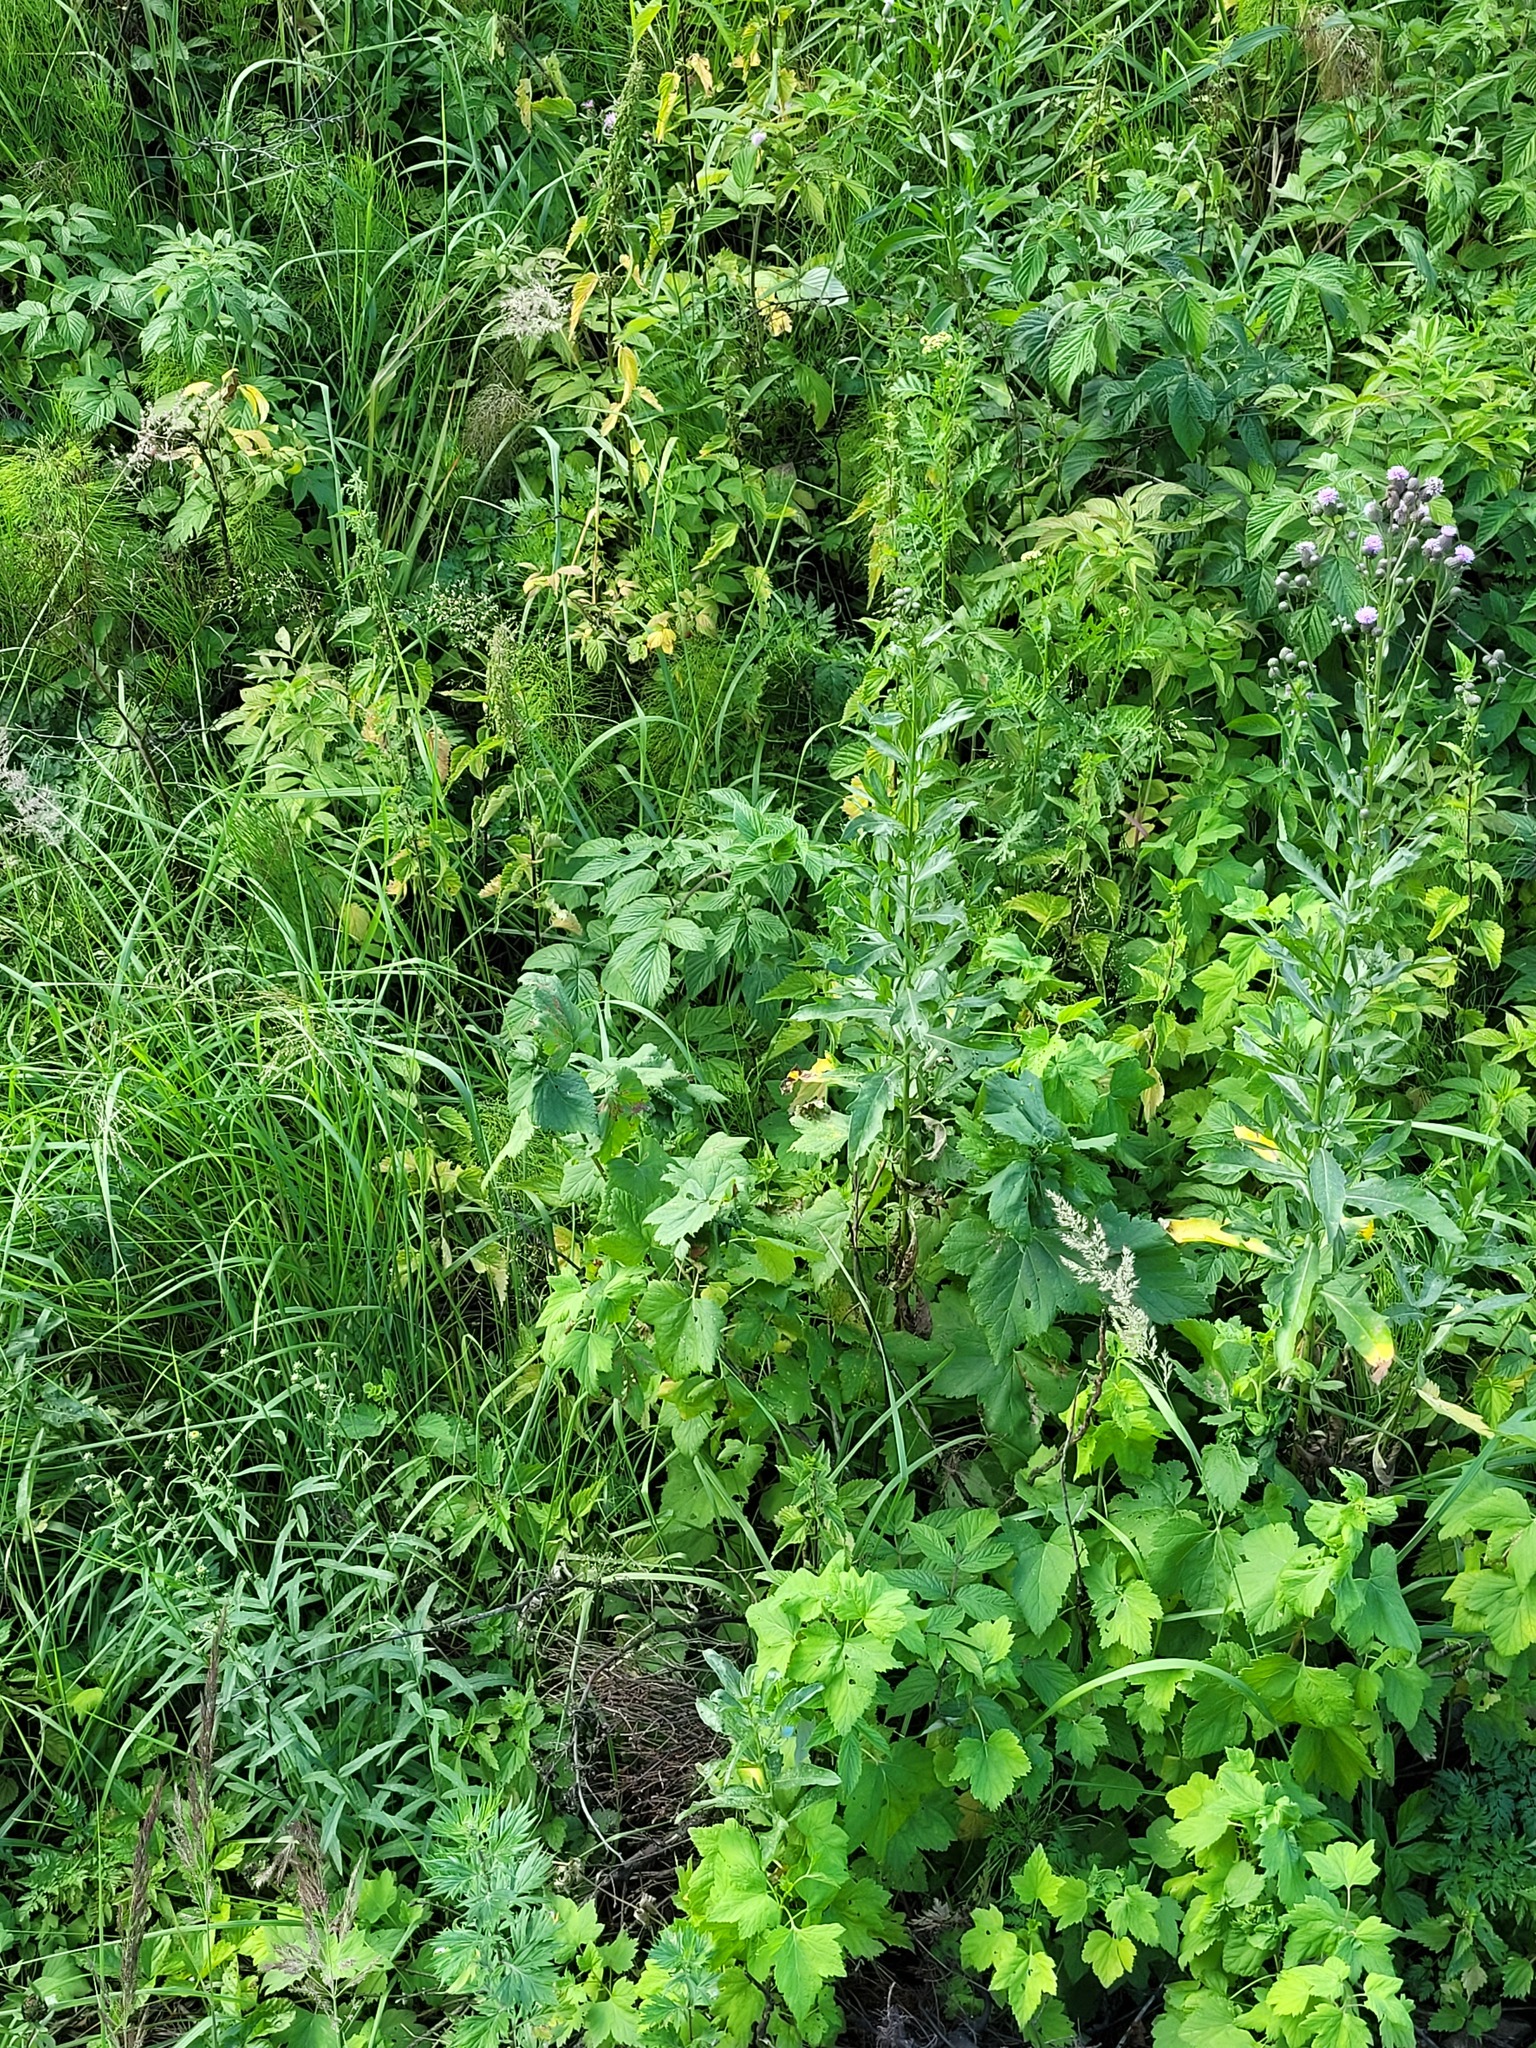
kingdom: Plantae
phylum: Tracheophyta
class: Magnoliopsida
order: Asterales
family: Asteraceae
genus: Cirsium
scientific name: Cirsium arvense
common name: Creeping thistle
